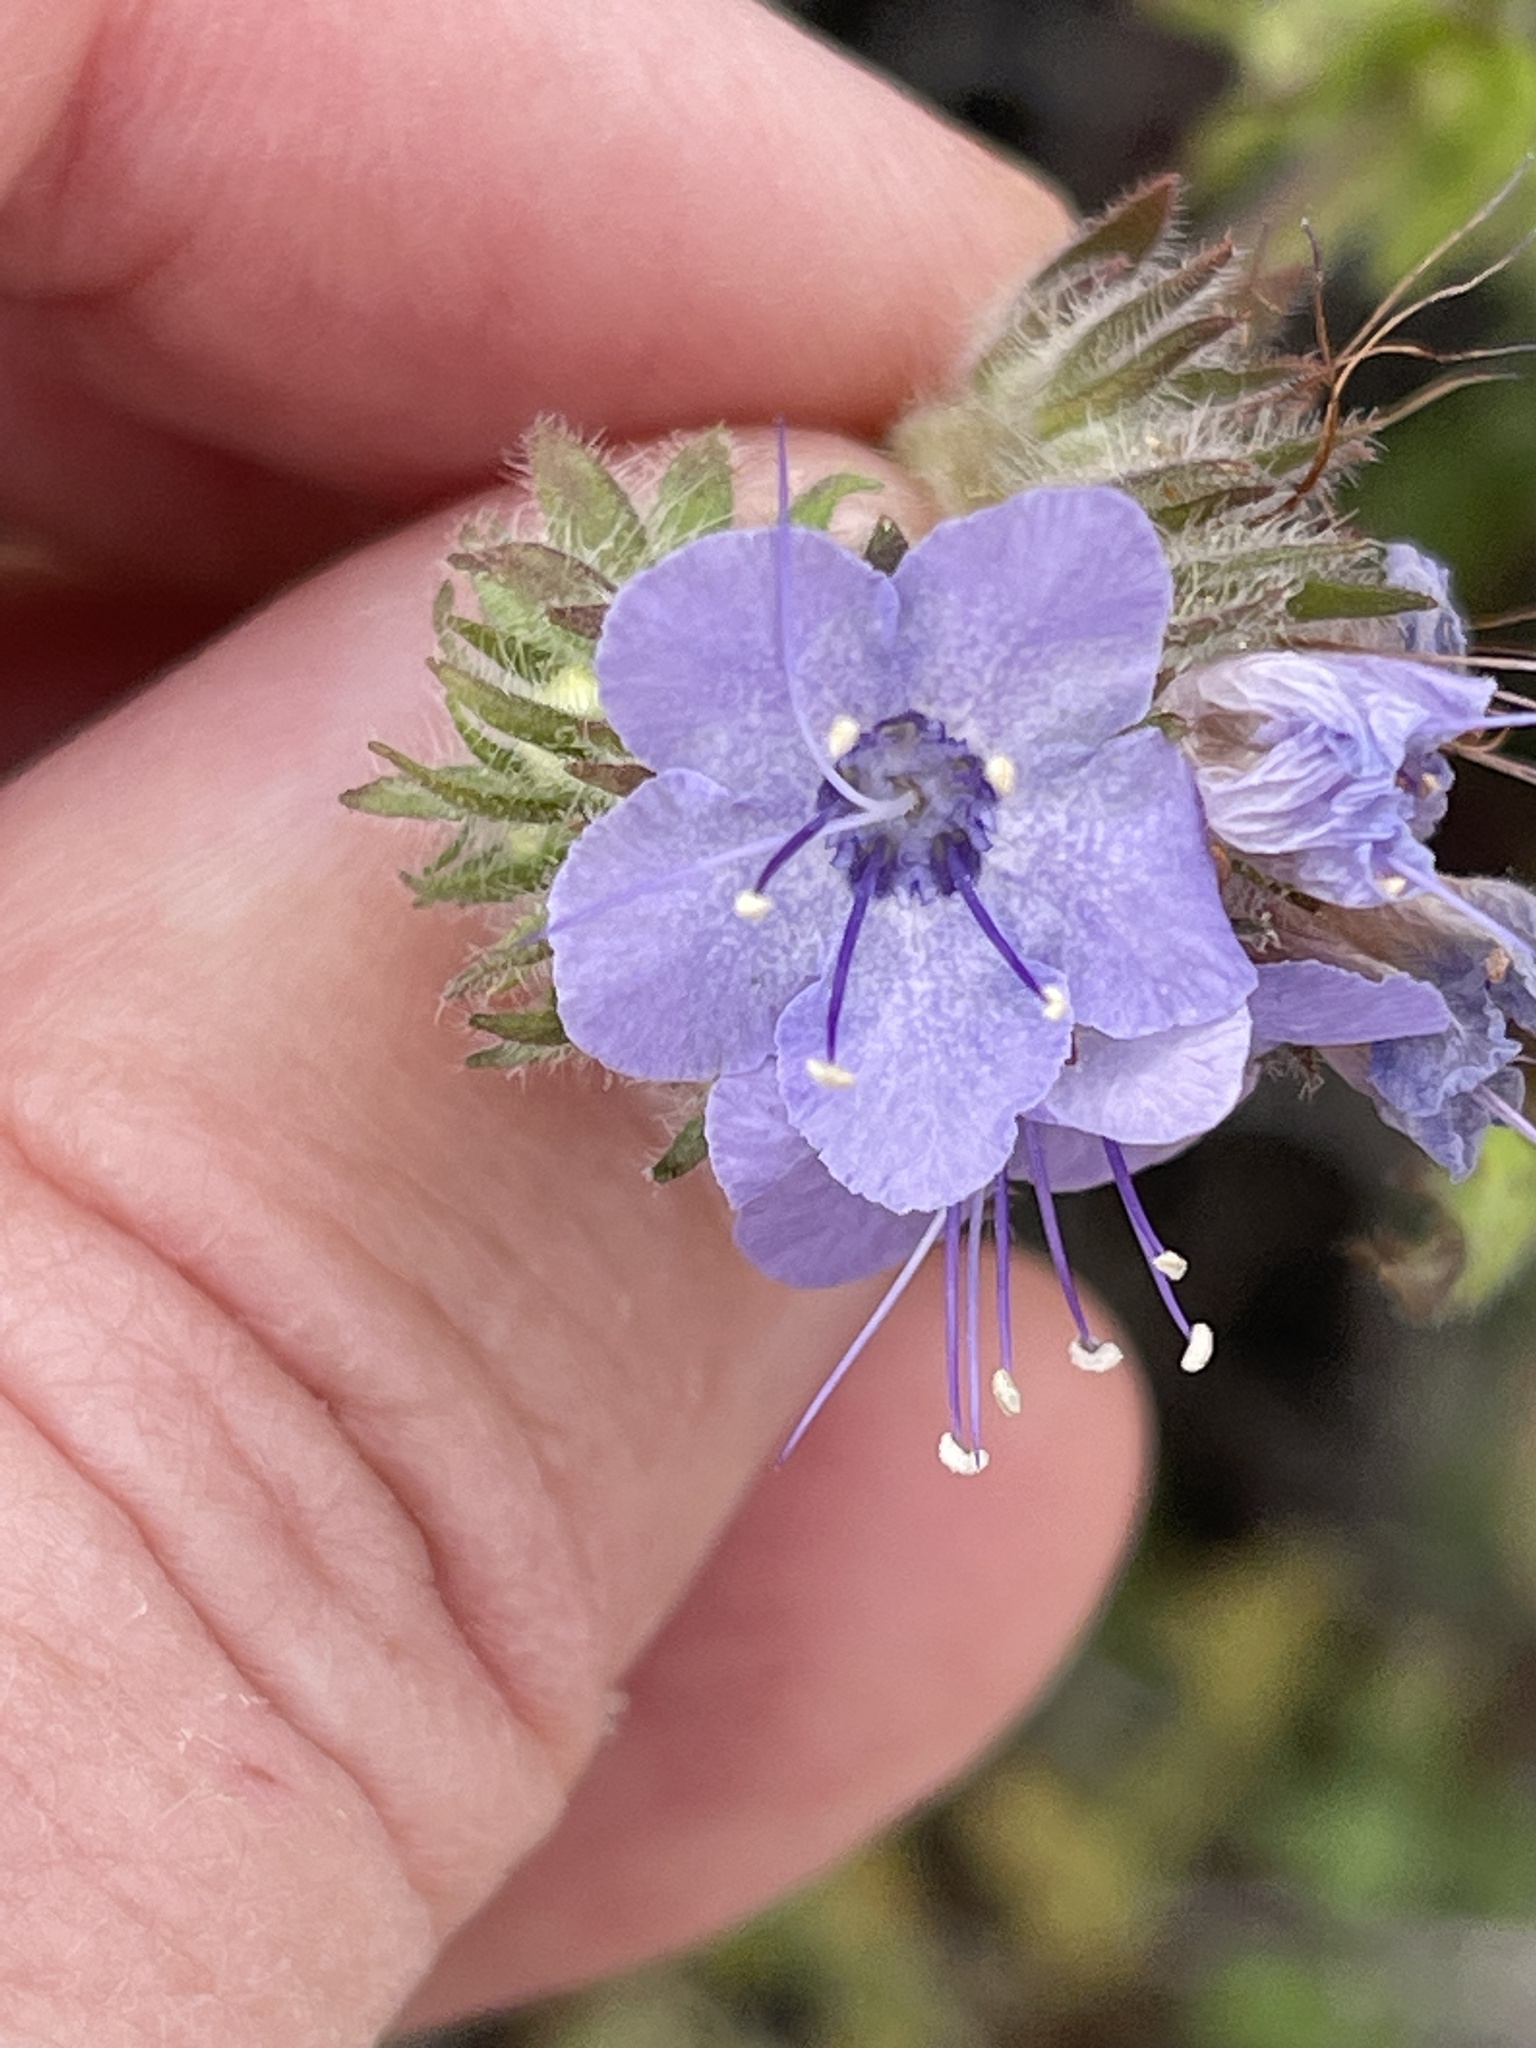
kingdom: Plantae
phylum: Tracheophyta
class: Magnoliopsida
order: Boraginales
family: Hydrophyllaceae
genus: Phacelia
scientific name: Phacelia distans
